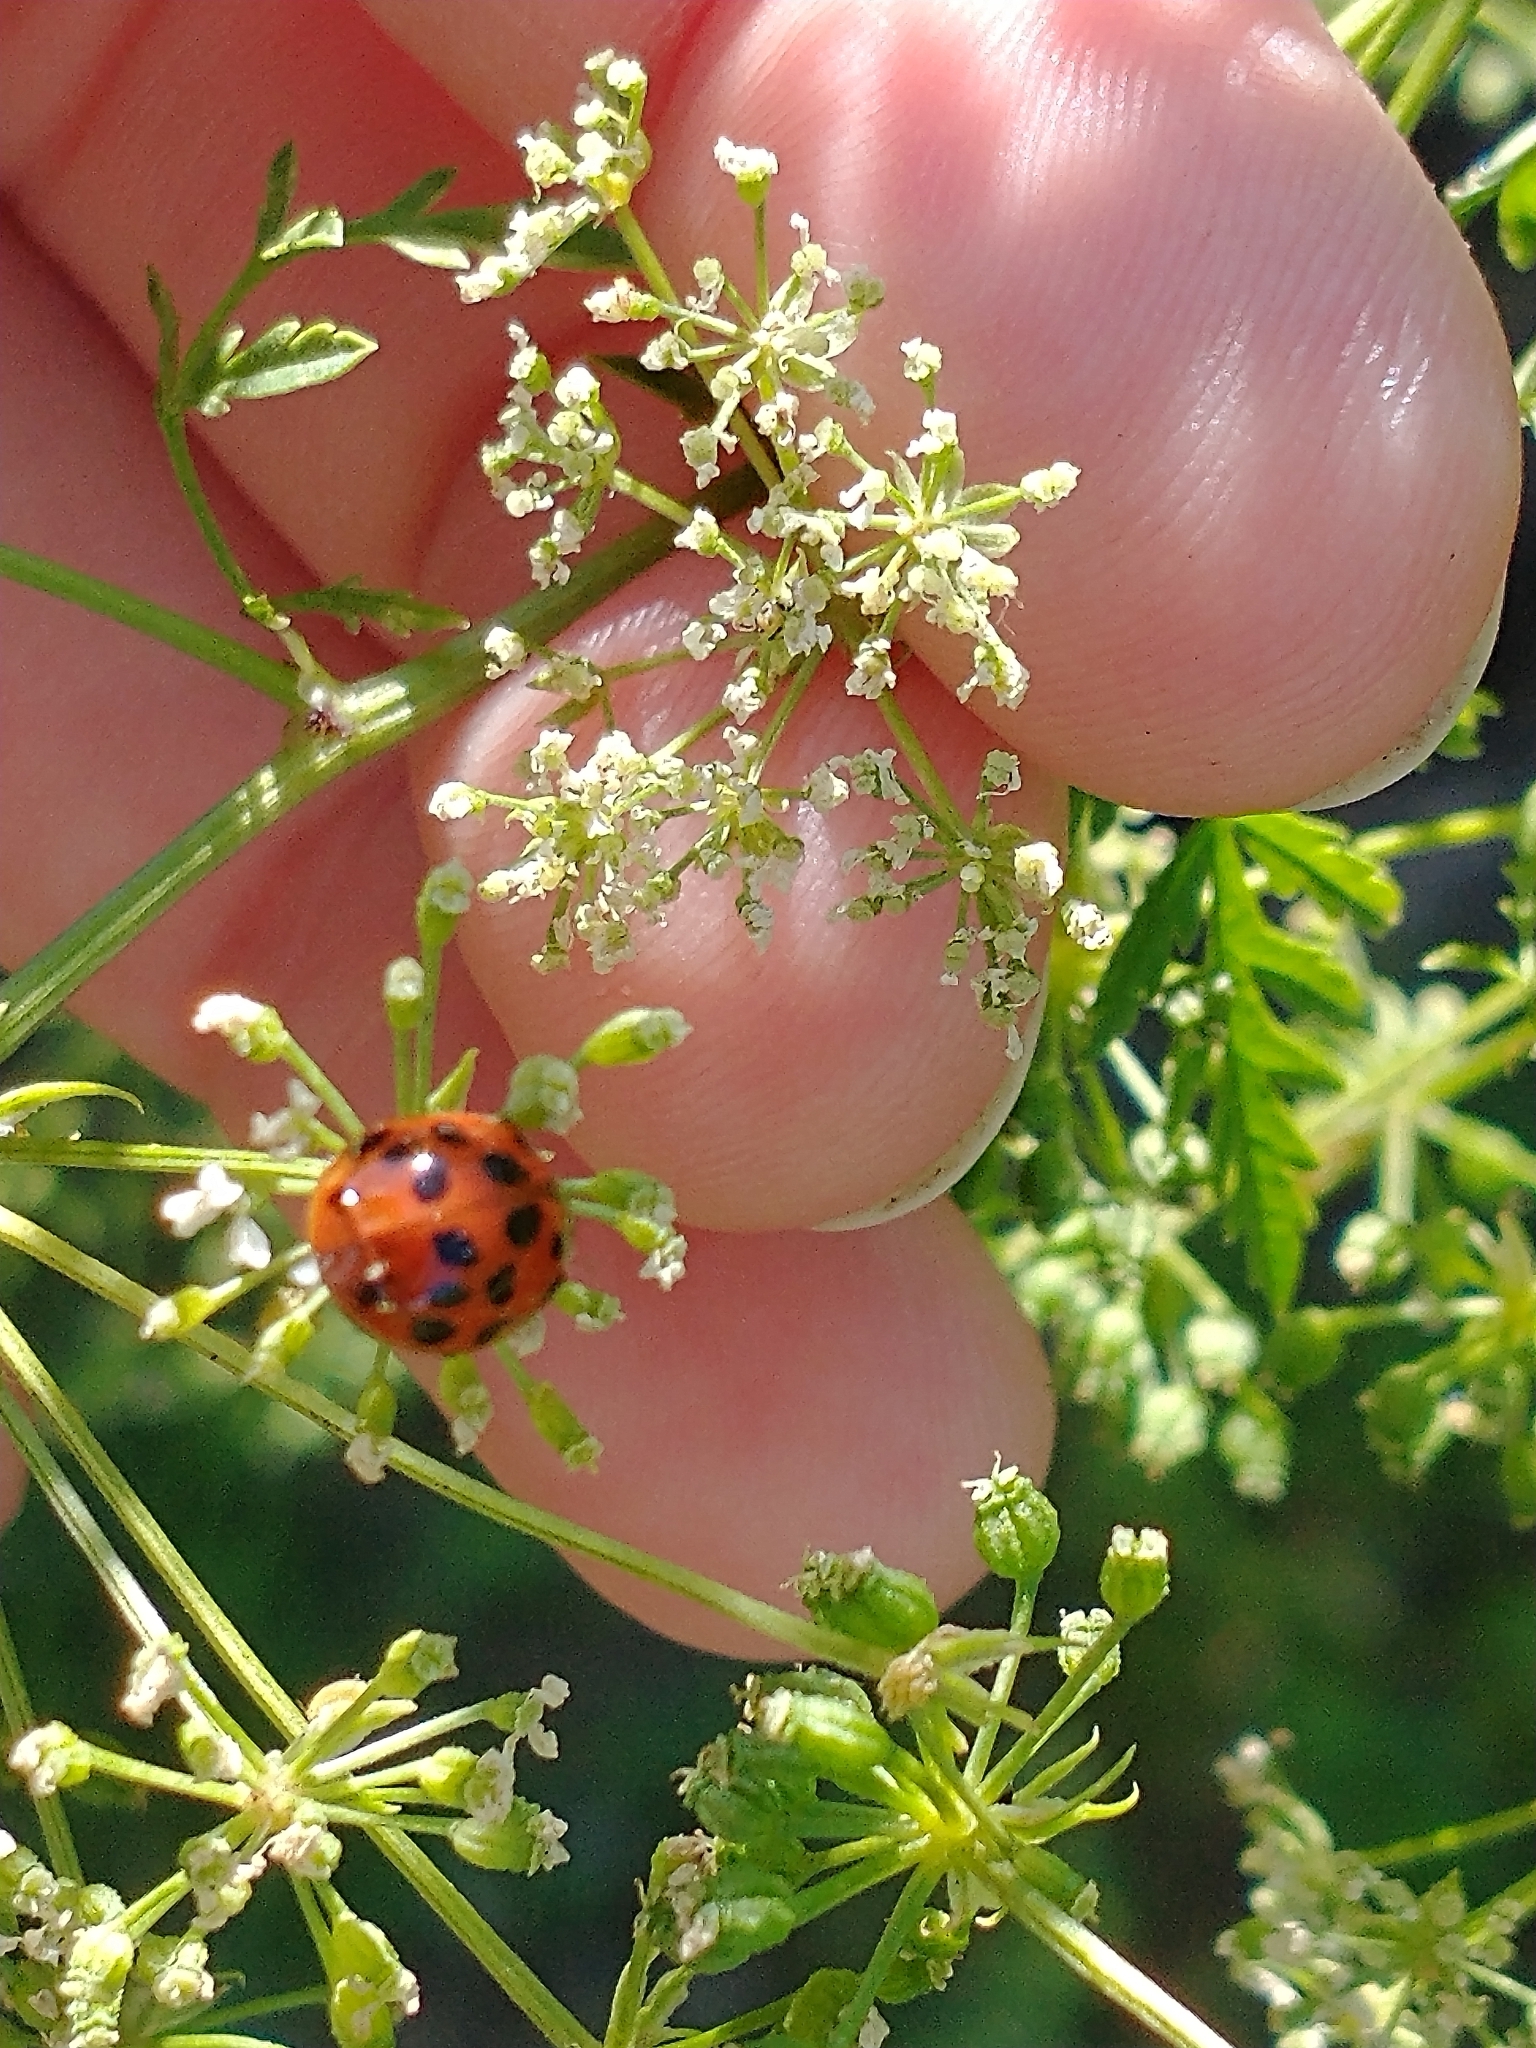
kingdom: Animalia
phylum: Arthropoda
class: Insecta
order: Coleoptera
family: Coccinellidae
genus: Harmonia
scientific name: Harmonia axyridis
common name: Harlequin ladybird
